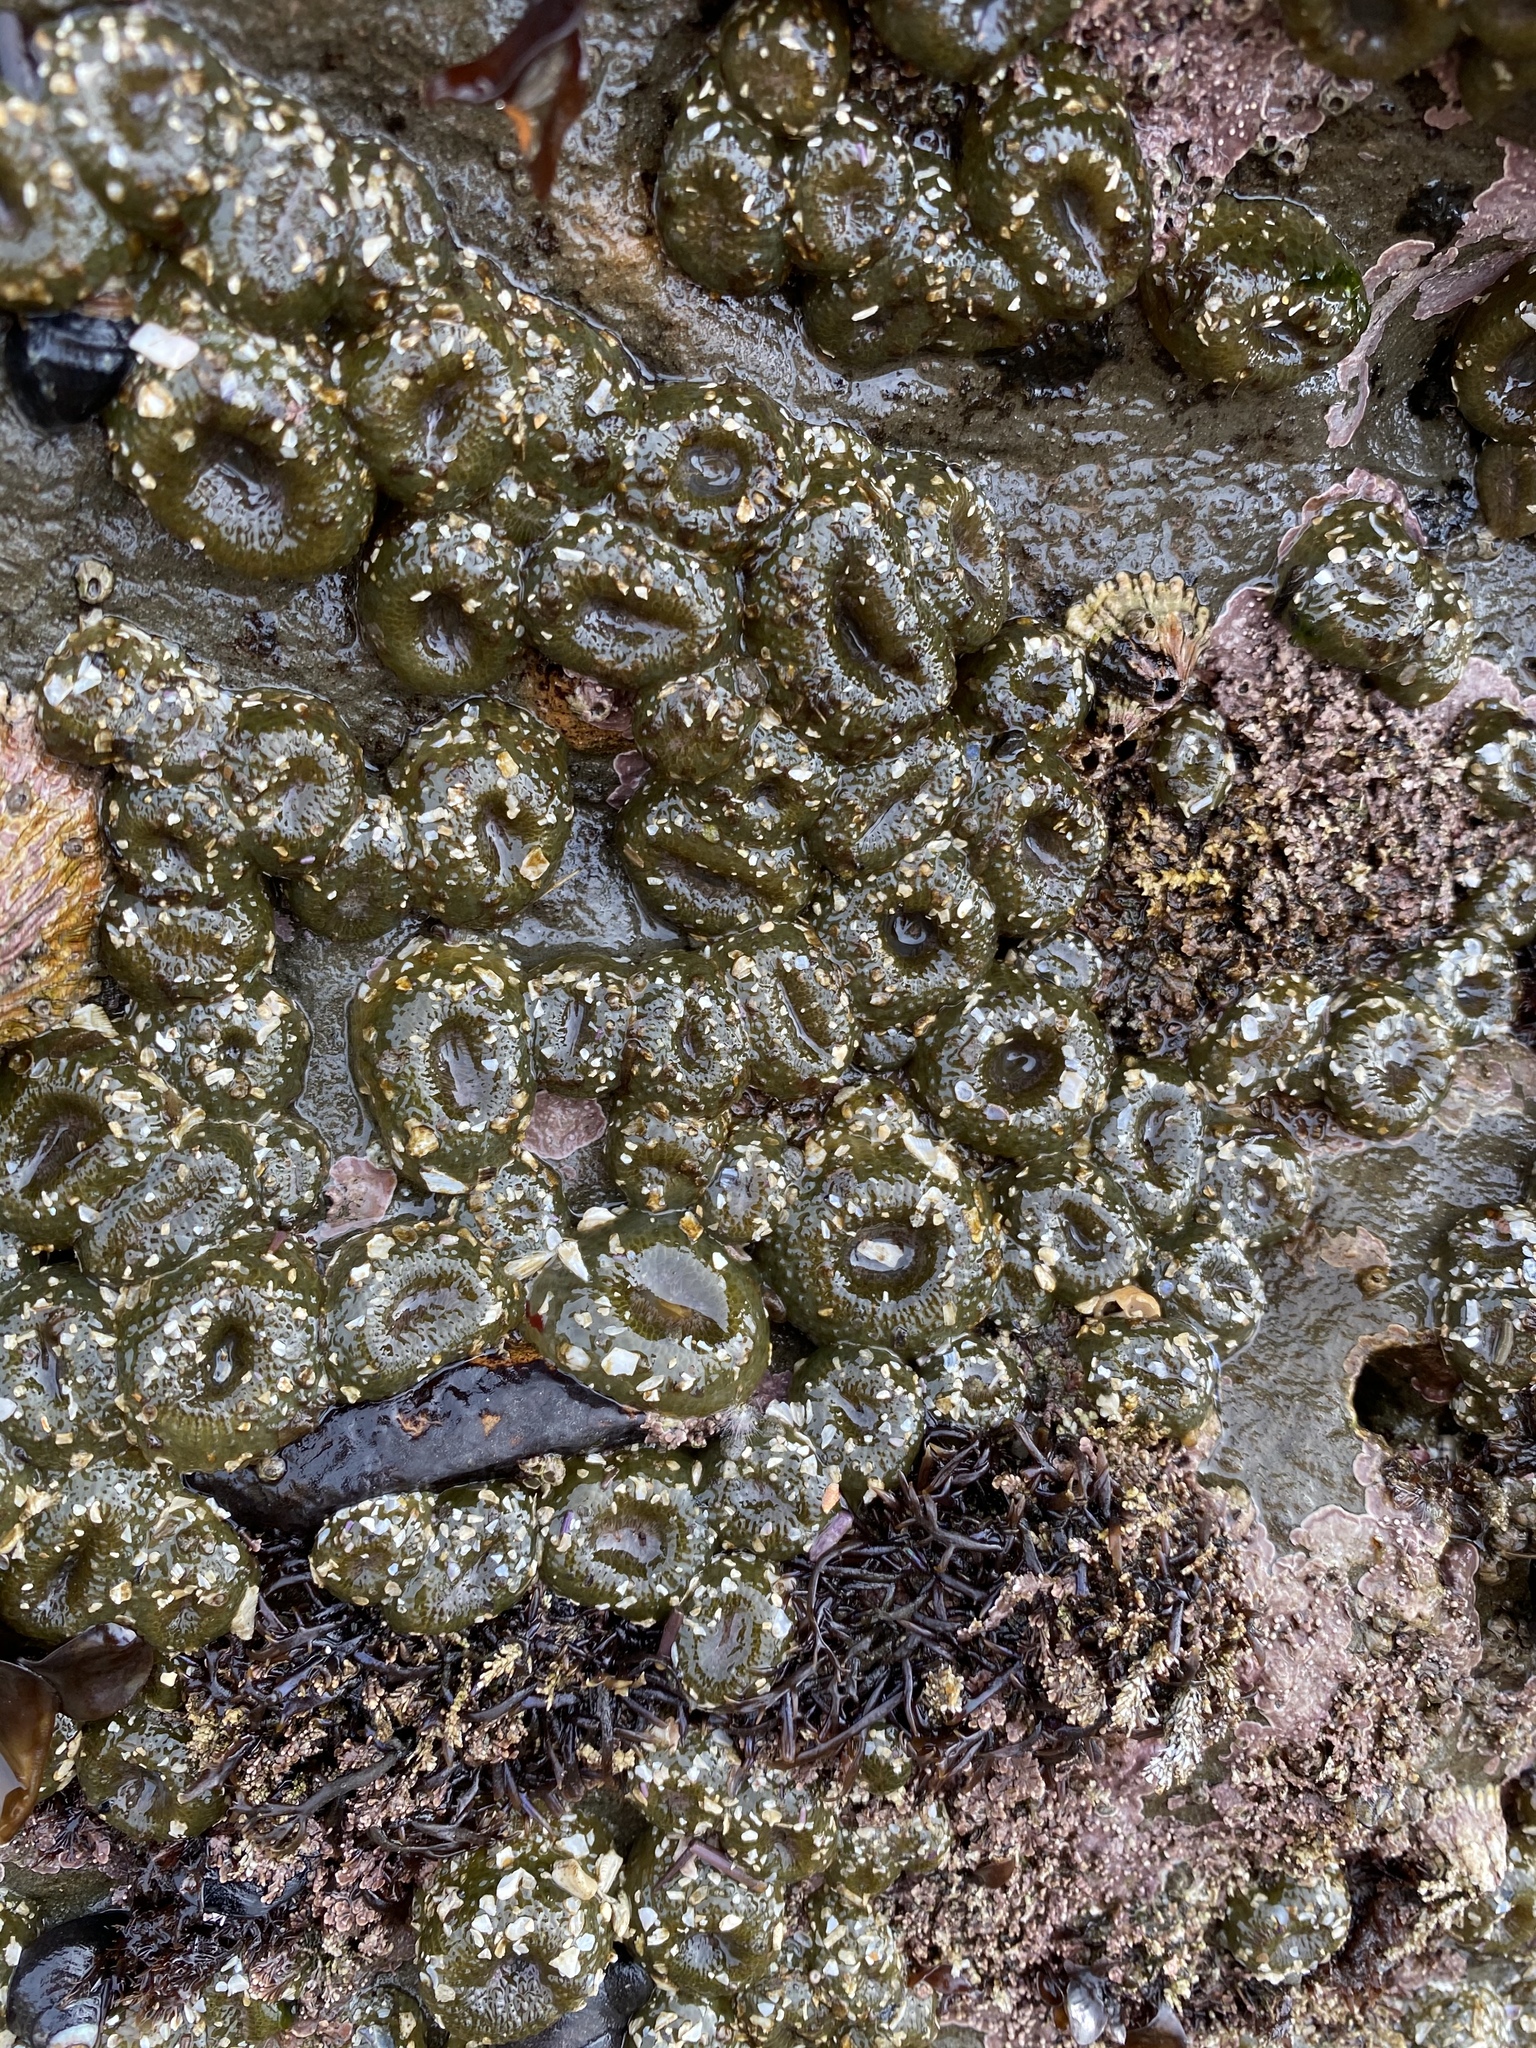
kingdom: Animalia
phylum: Cnidaria
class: Anthozoa
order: Actiniaria
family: Actiniidae
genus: Anthopleura
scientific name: Anthopleura elegantissima
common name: Clonal anemone
